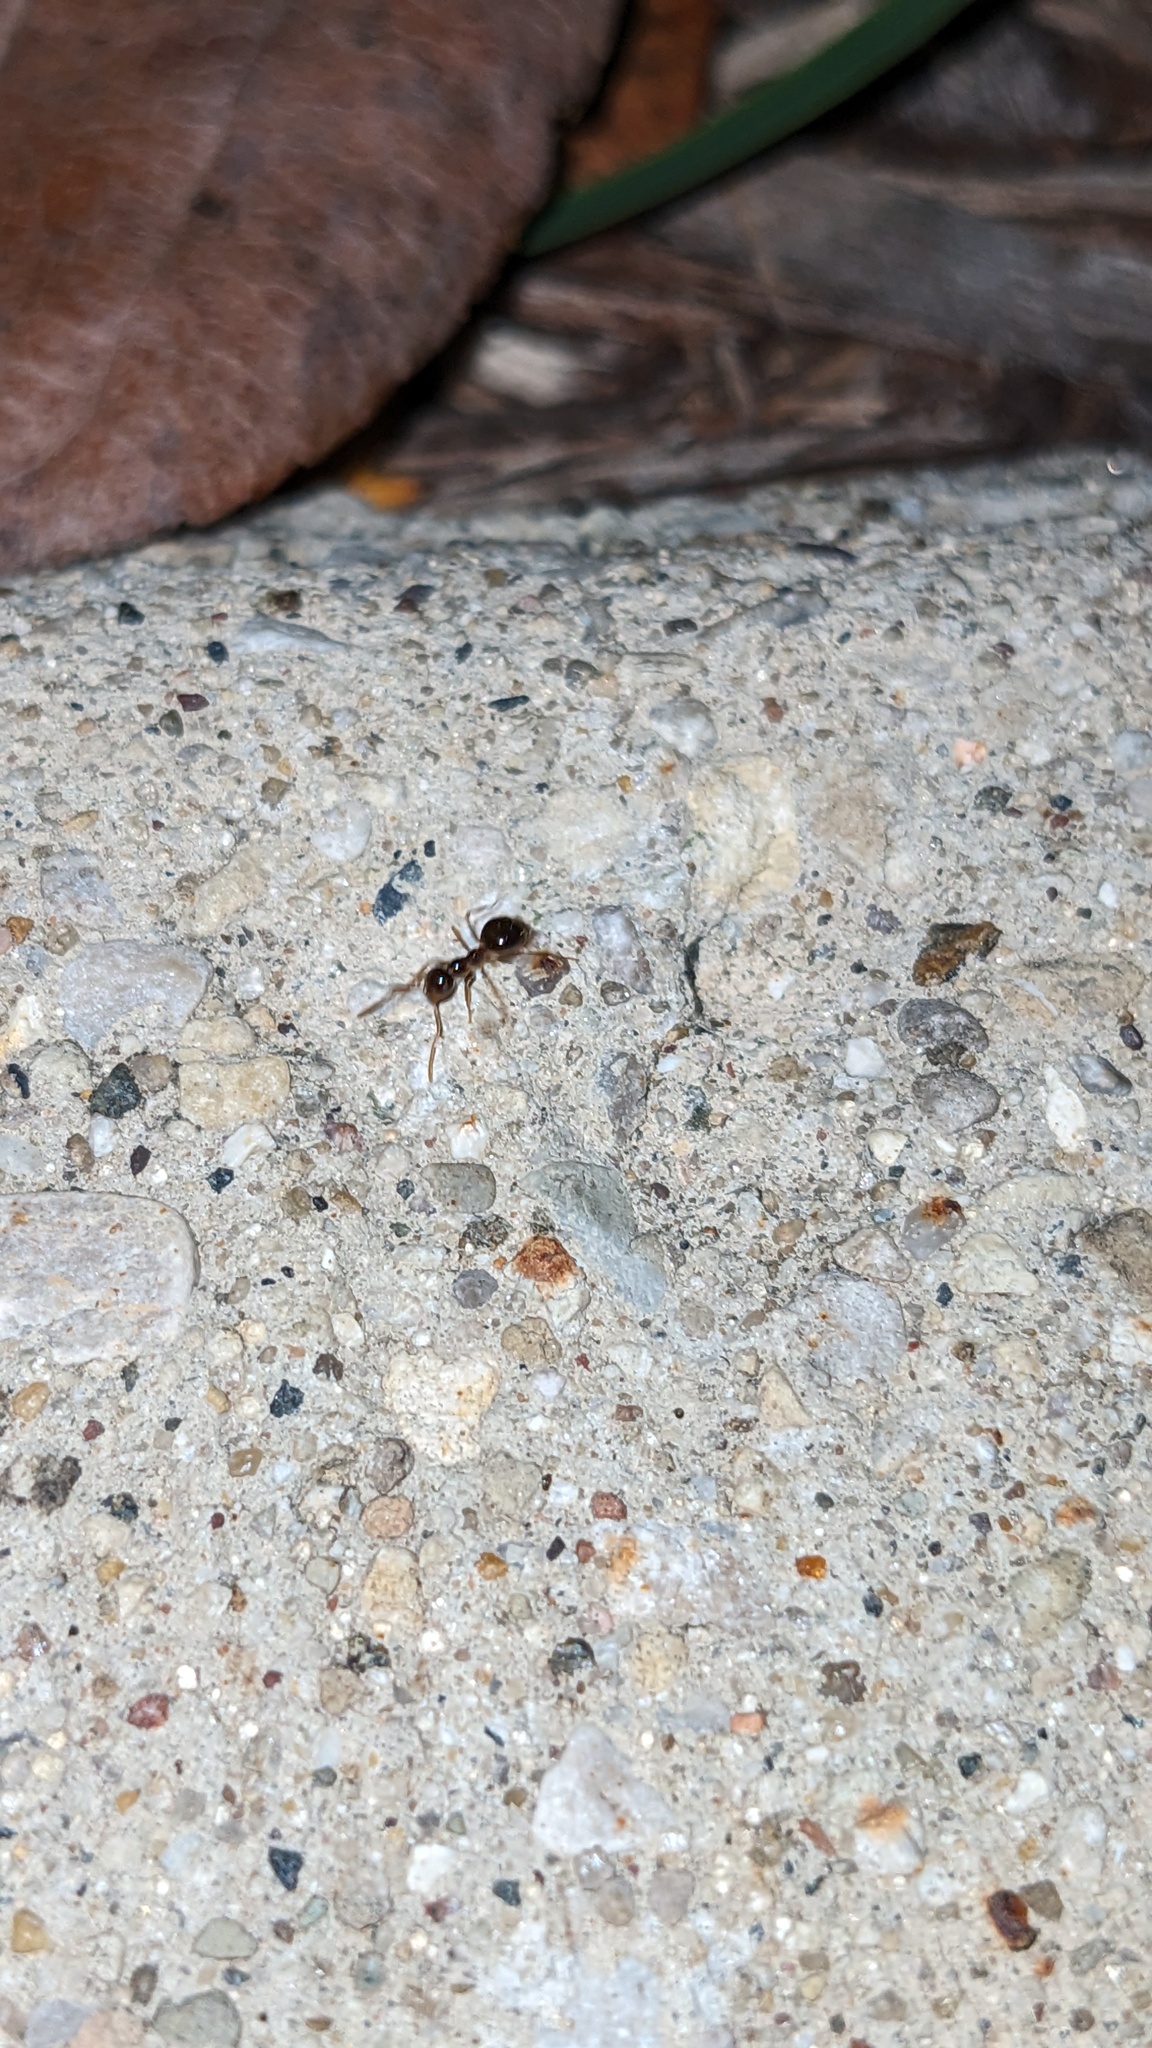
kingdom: Animalia
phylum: Arthropoda
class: Insecta
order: Hymenoptera
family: Formicidae
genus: Prenolepis
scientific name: Prenolepis imparis
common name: Small honey ant
